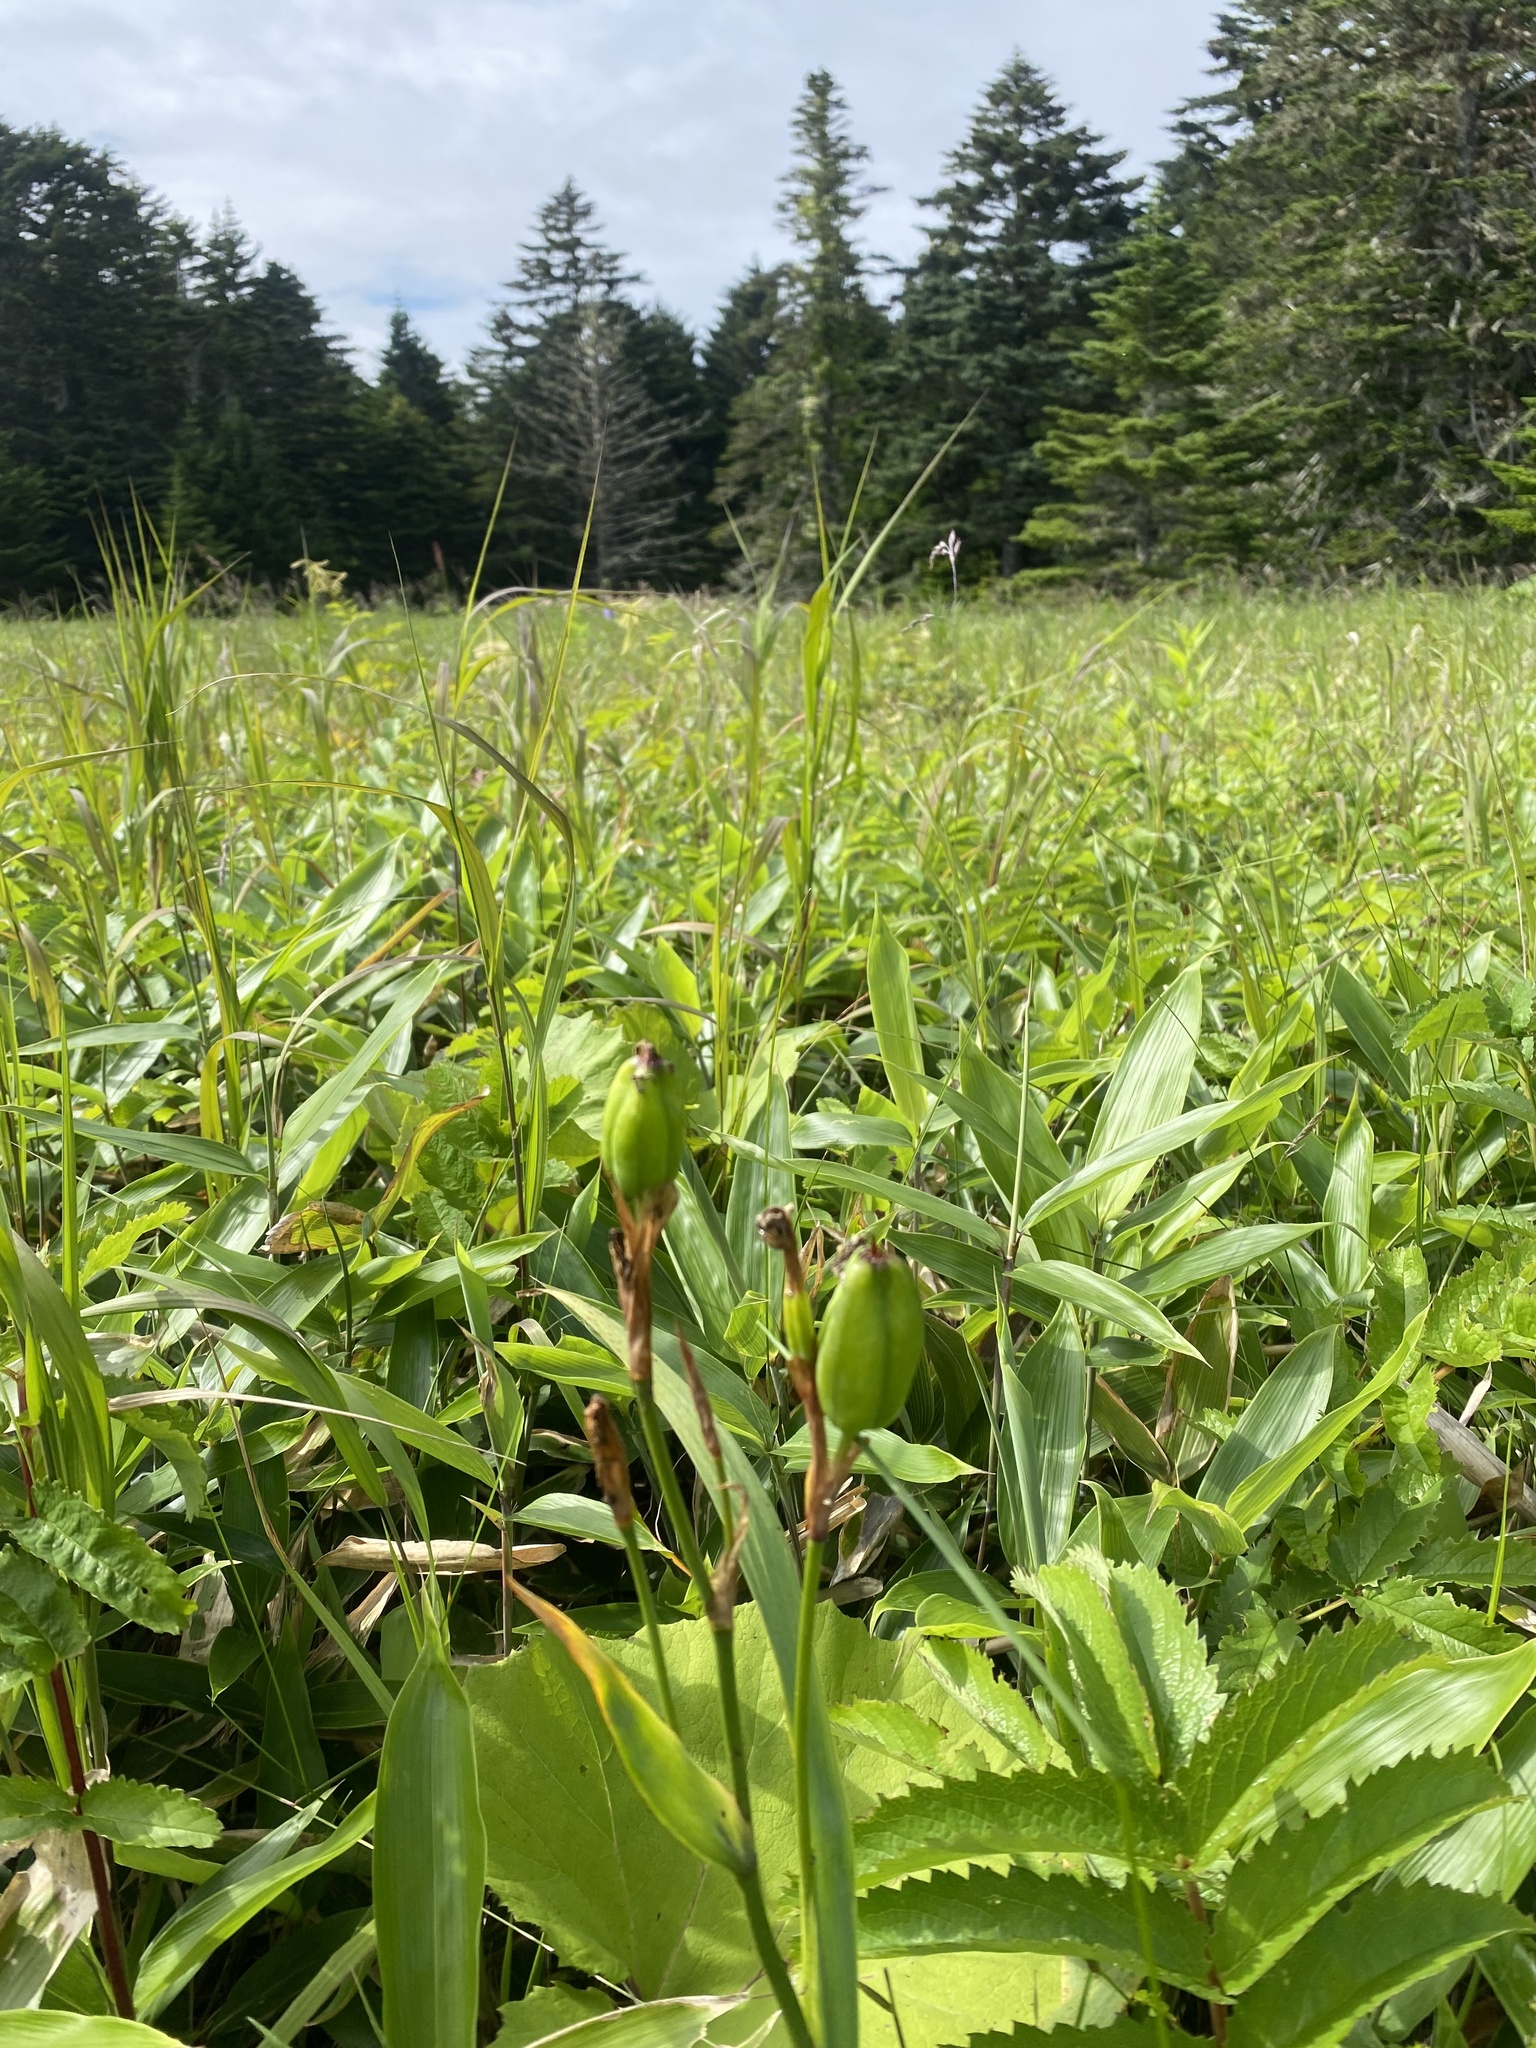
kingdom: Plantae
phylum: Tracheophyta
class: Liliopsida
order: Asparagales
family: Iridaceae
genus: Iris
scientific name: Iris setosa
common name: Arctic blue flag
